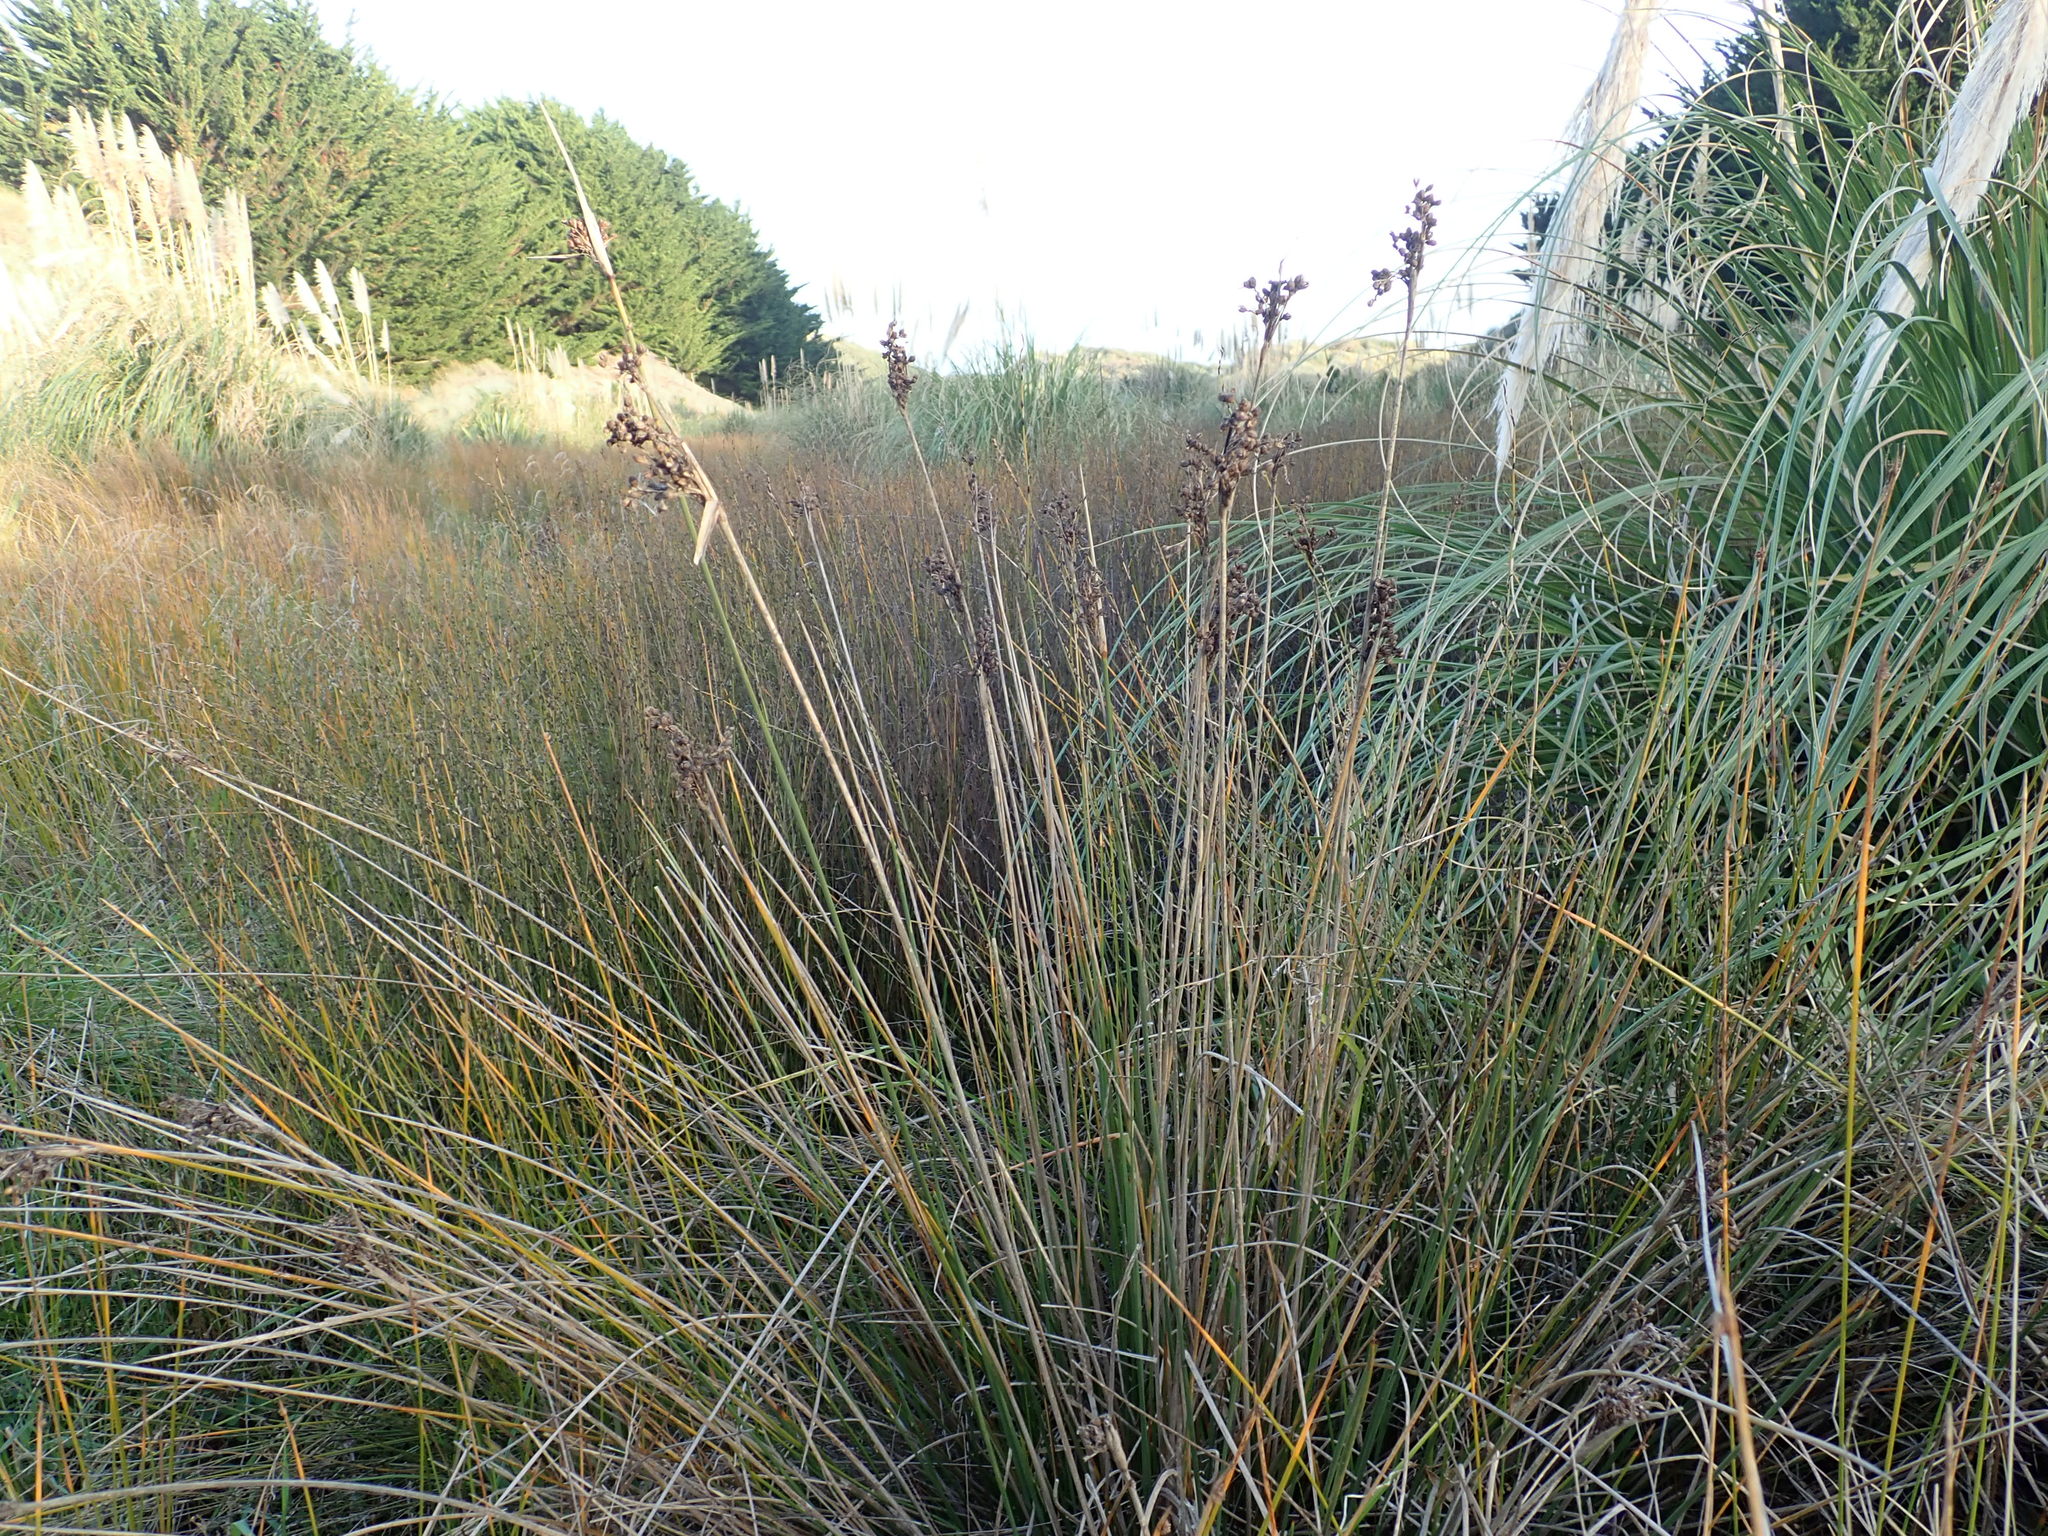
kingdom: Plantae
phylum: Tracheophyta
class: Liliopsida
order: Poales
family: Juncaceae
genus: Juncus
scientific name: Juncus acutus
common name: Sharp rush
